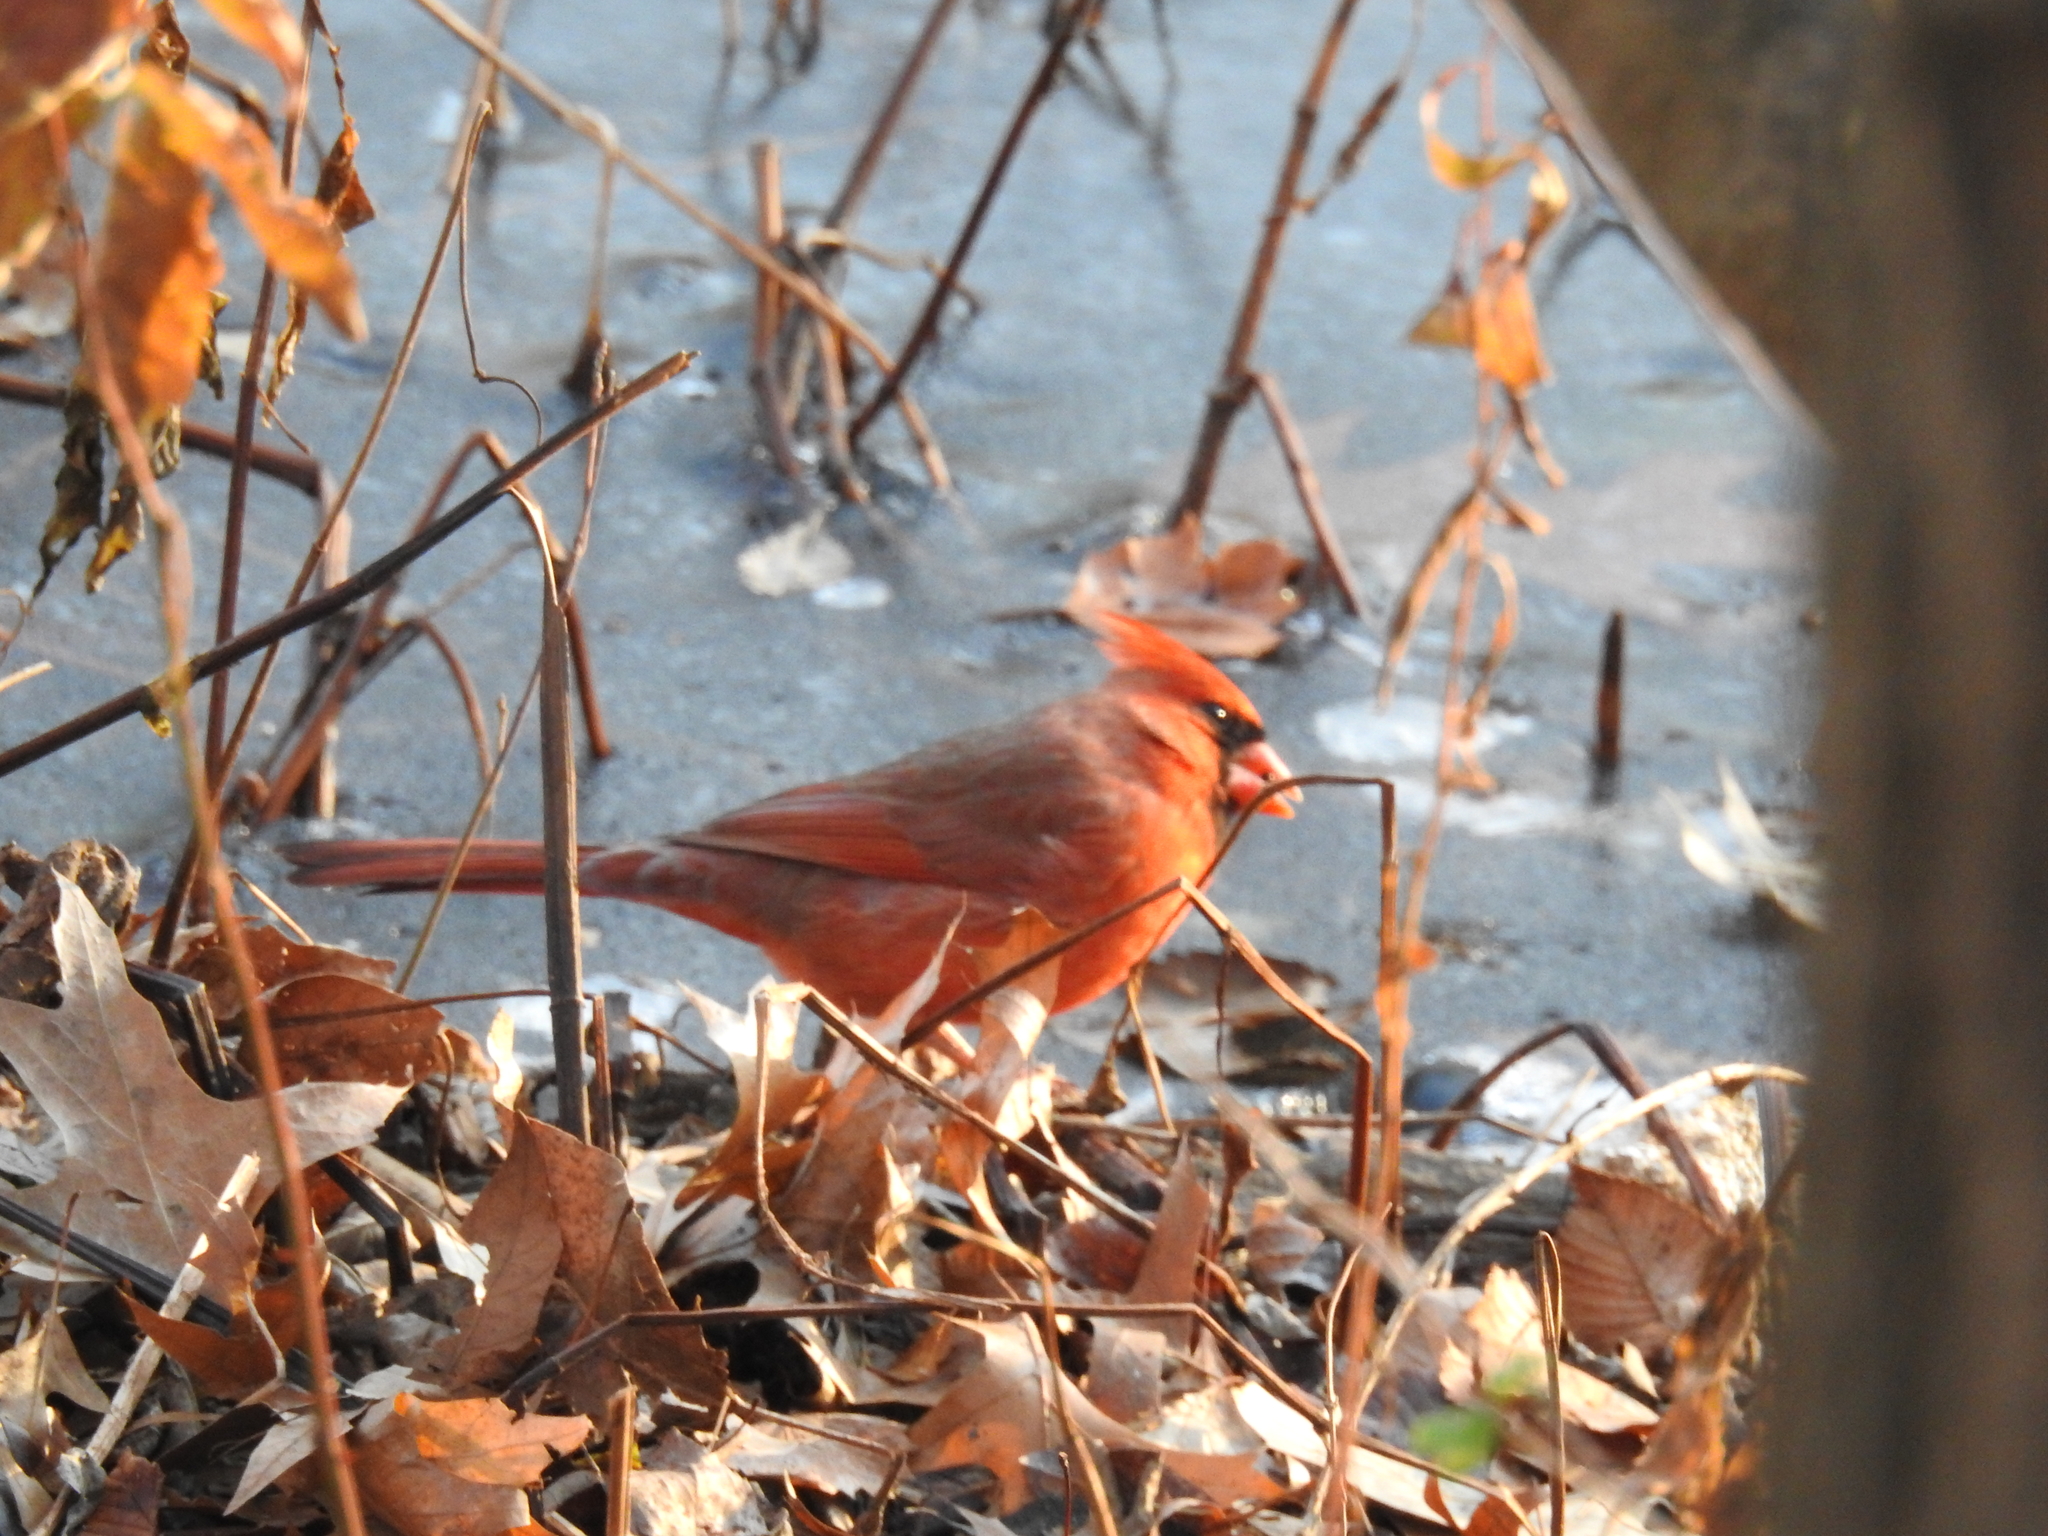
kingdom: Animalia
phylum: Chordata
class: Aves
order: Passeriformes
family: Cardinalidae
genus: Cardinalis
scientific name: Cardinalis cardinalis
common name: Northern cardinal
